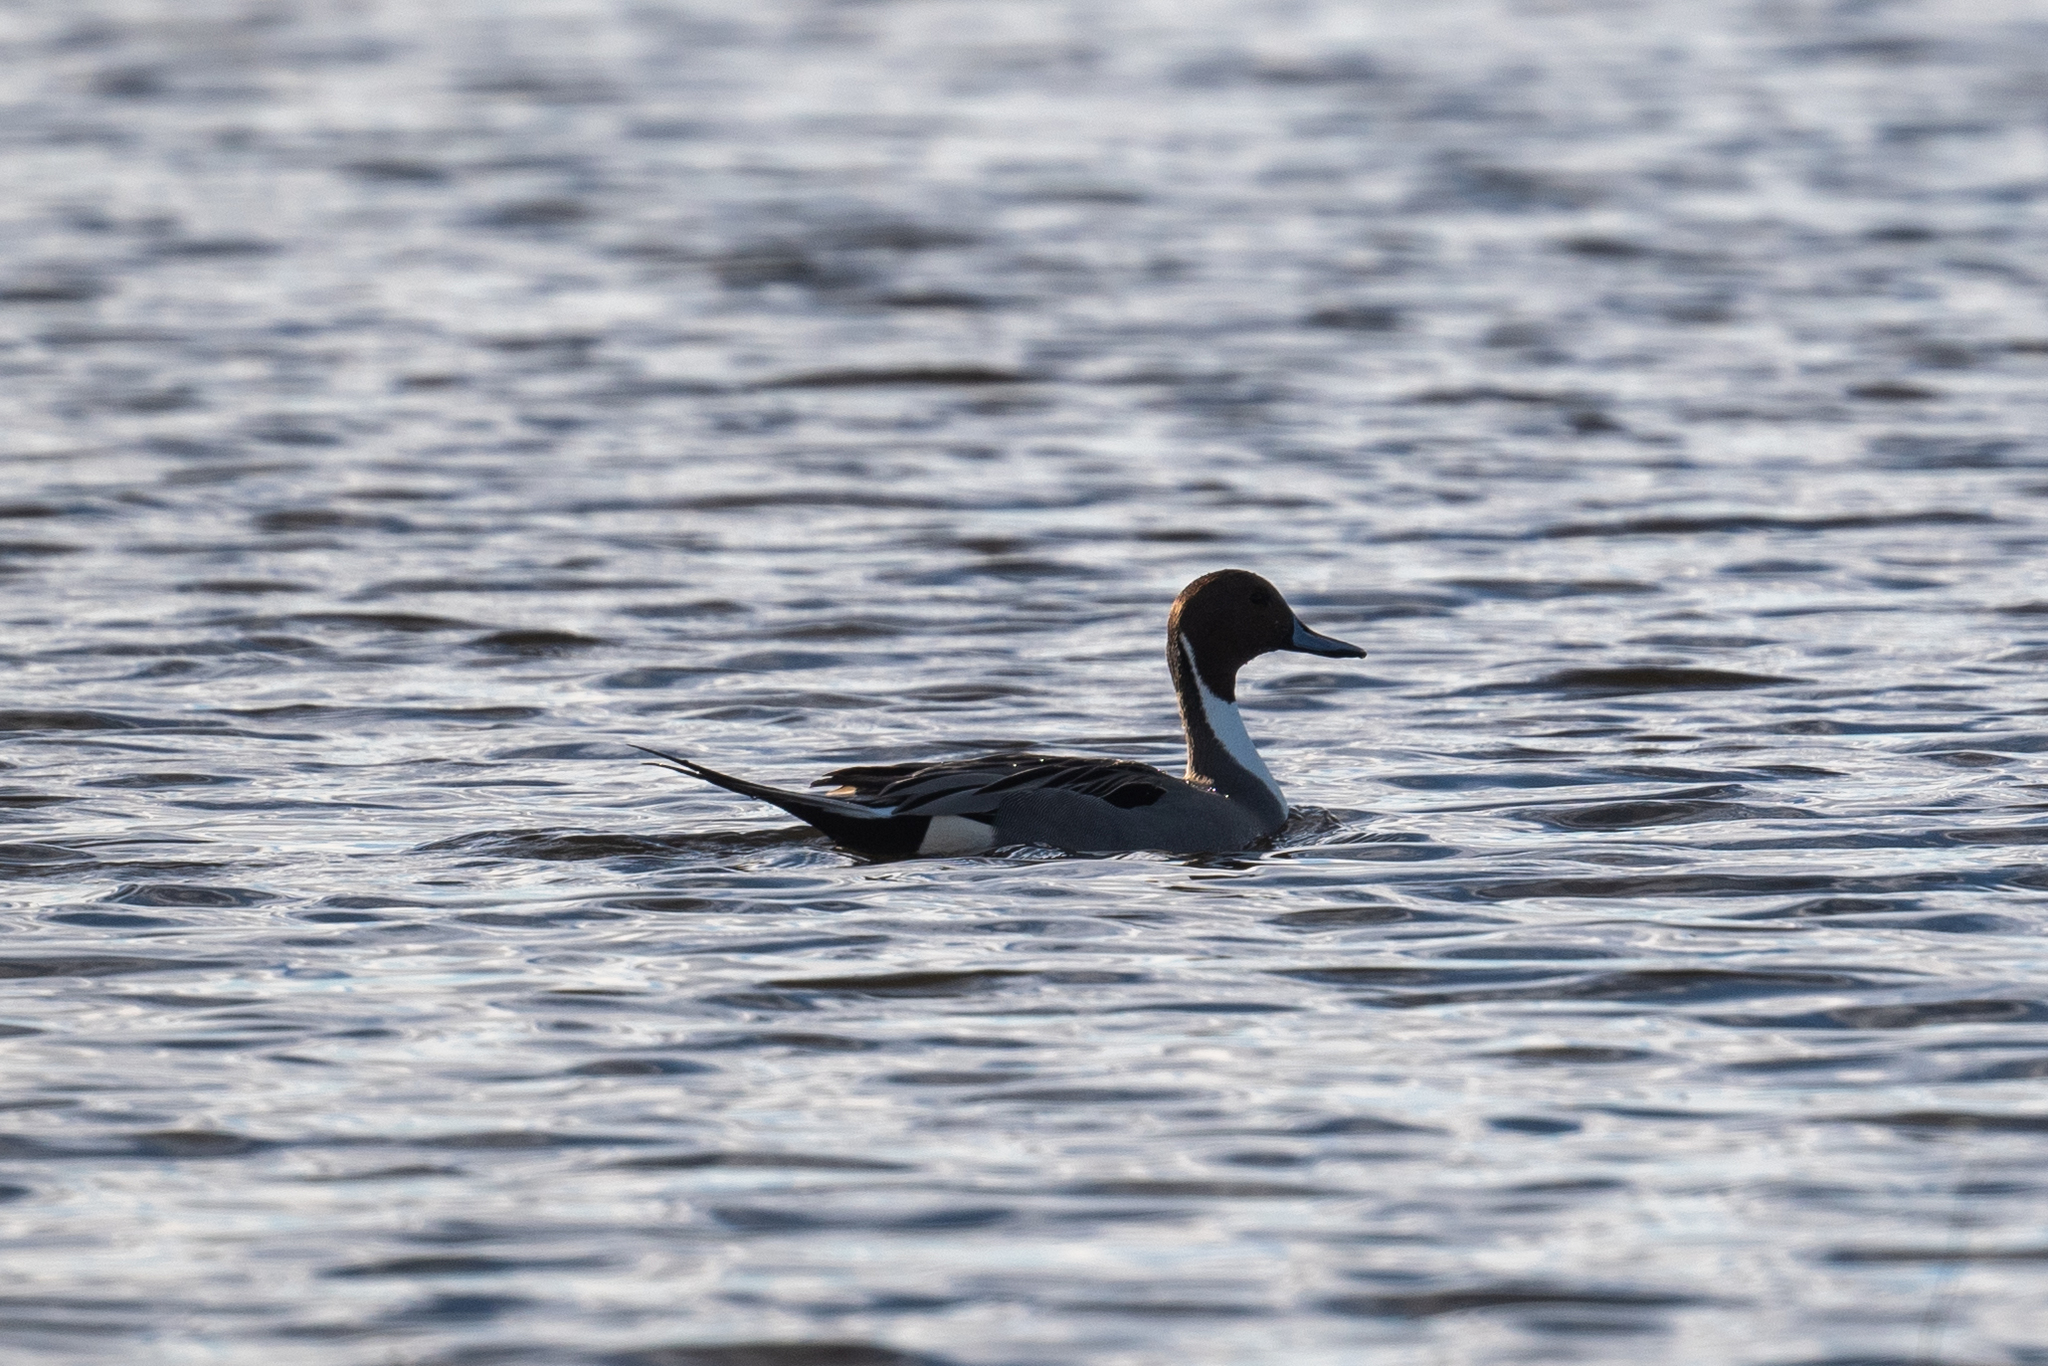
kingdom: Animalia
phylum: Chordata
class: Aves
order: Anseriformes
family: Anatidae
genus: Anas
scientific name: Anas acuta
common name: Northern pintail
